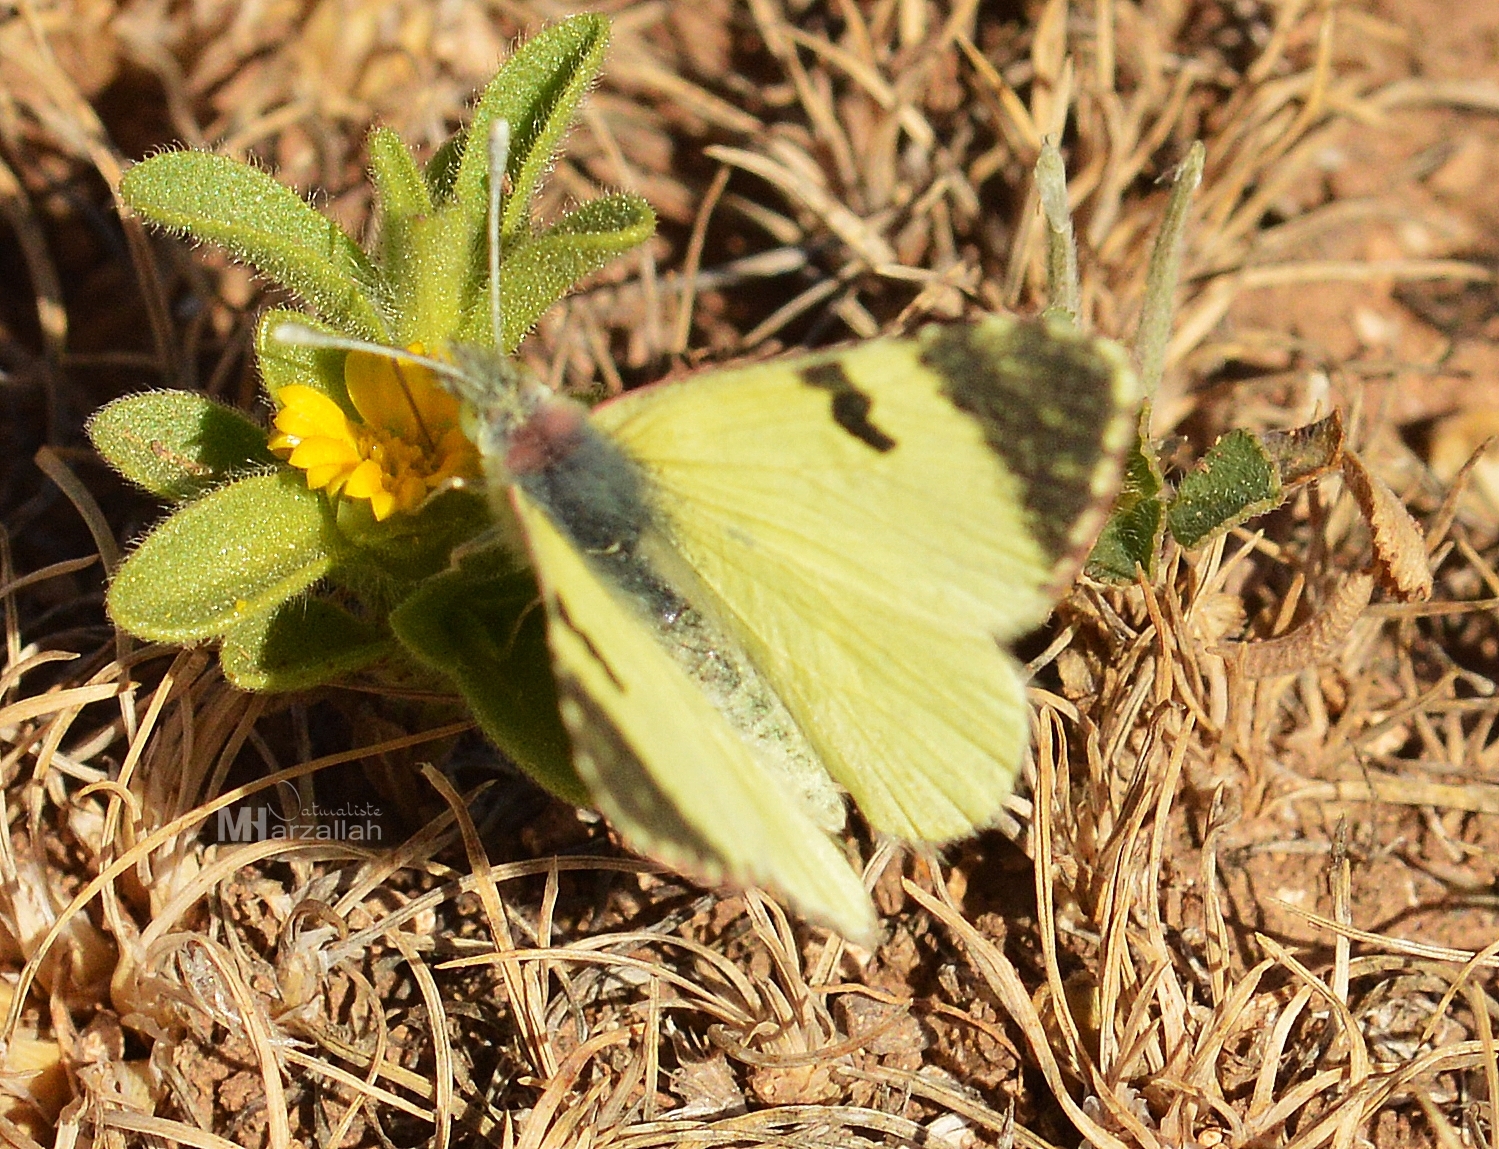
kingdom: Animalia
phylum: Arthropoda
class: Insecta
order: Lepidoptera
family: Pieridae
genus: Elphinstonia
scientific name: Elphinstonia charlonia
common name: Greenish black-tip
